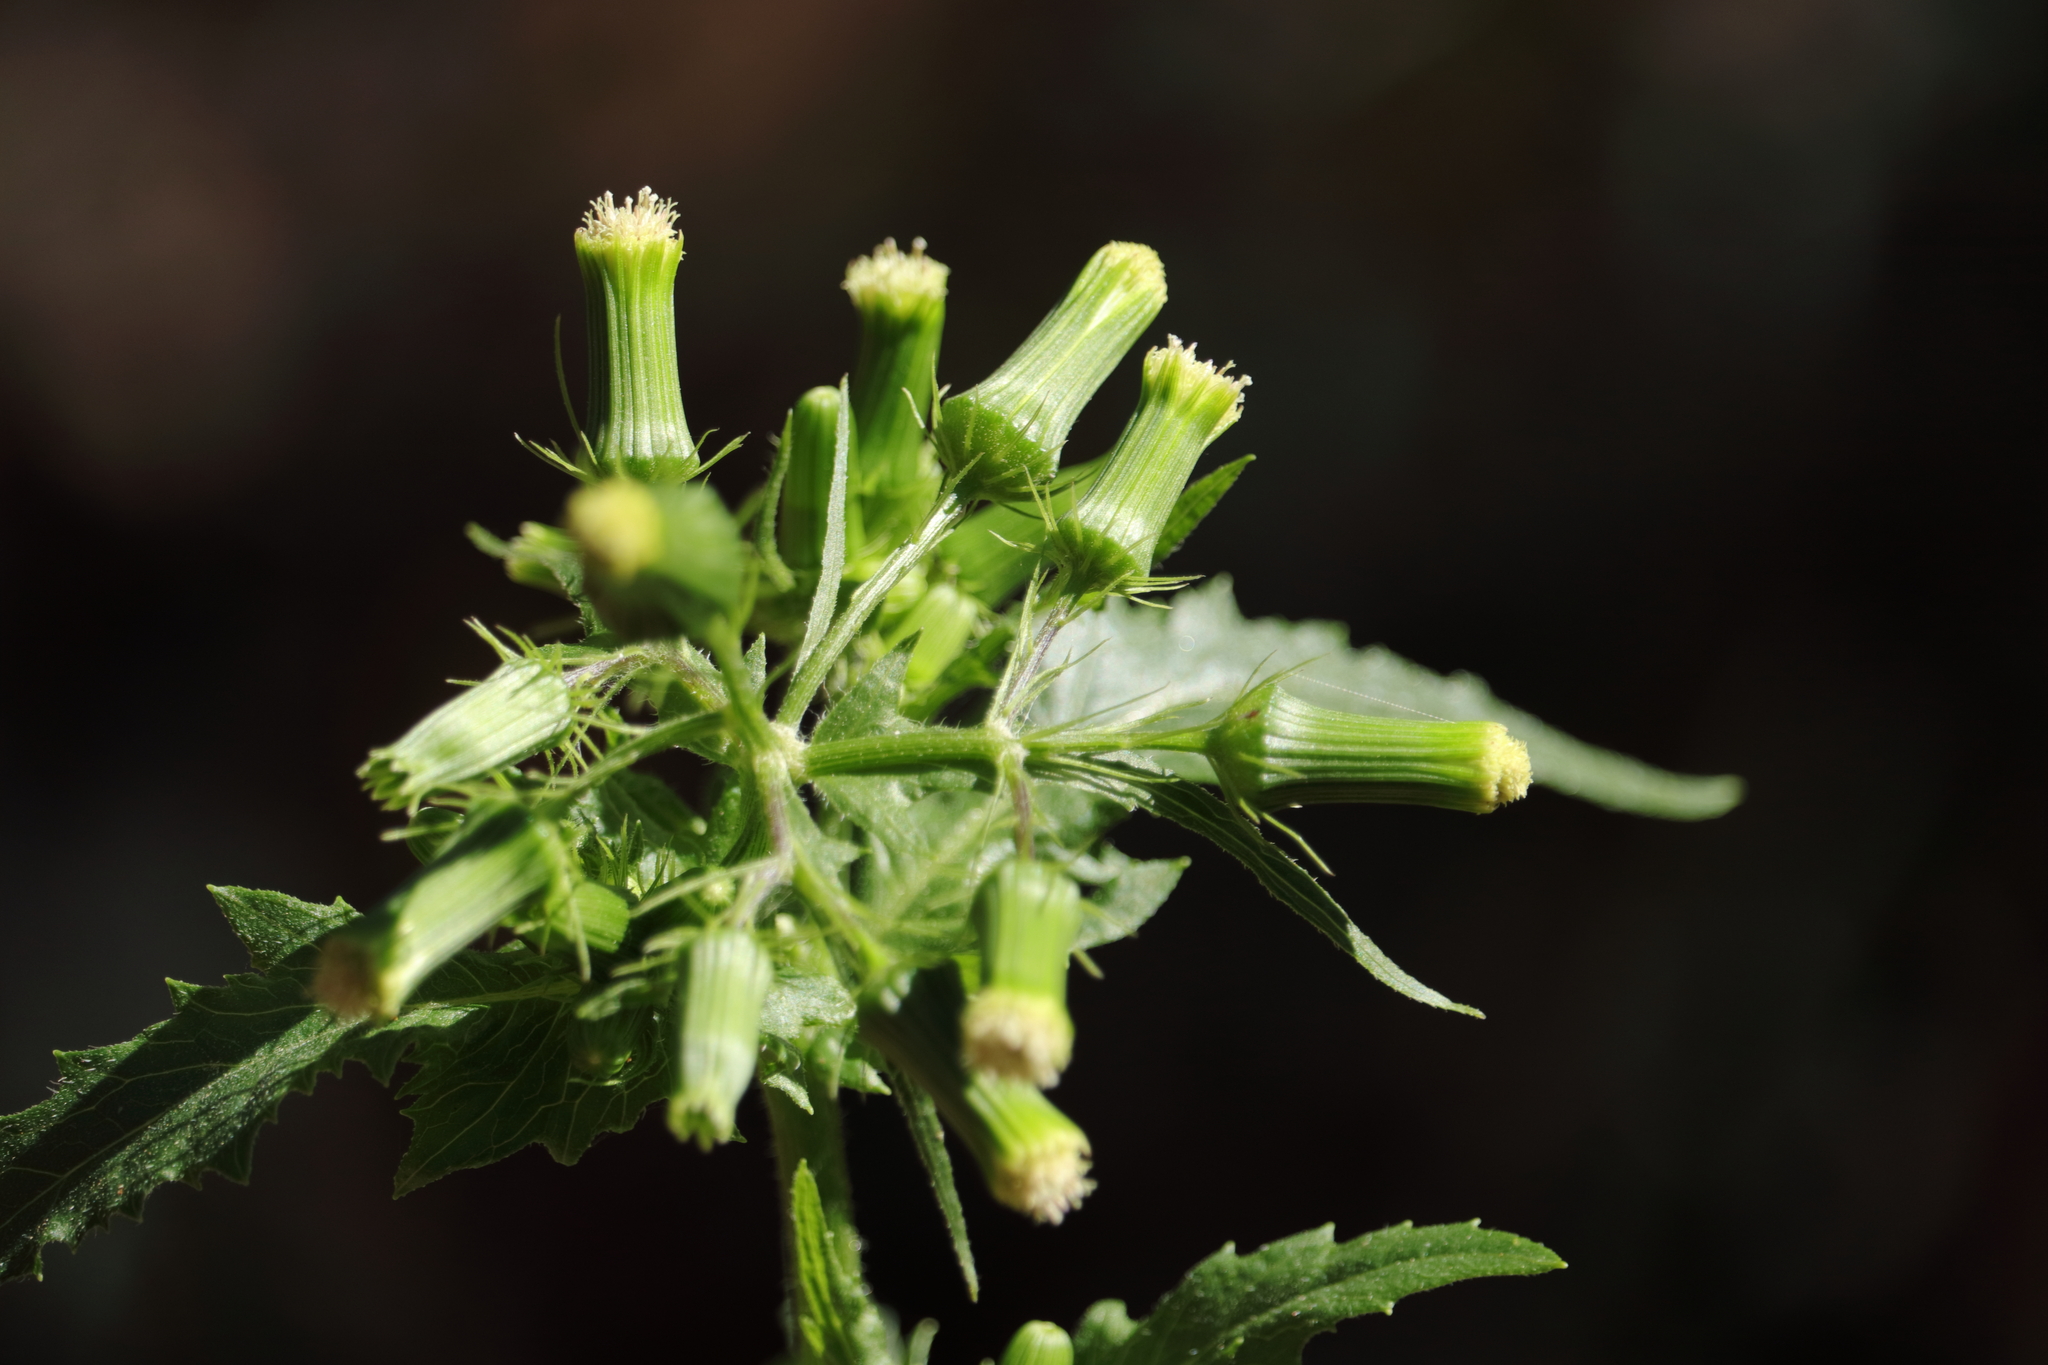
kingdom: Plantae
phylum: Tracheophyta
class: Magnoliopsida
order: Asterales
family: Asteraceae
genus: Erechtites
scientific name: Erechtites hieraciifolius
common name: American burnweed
